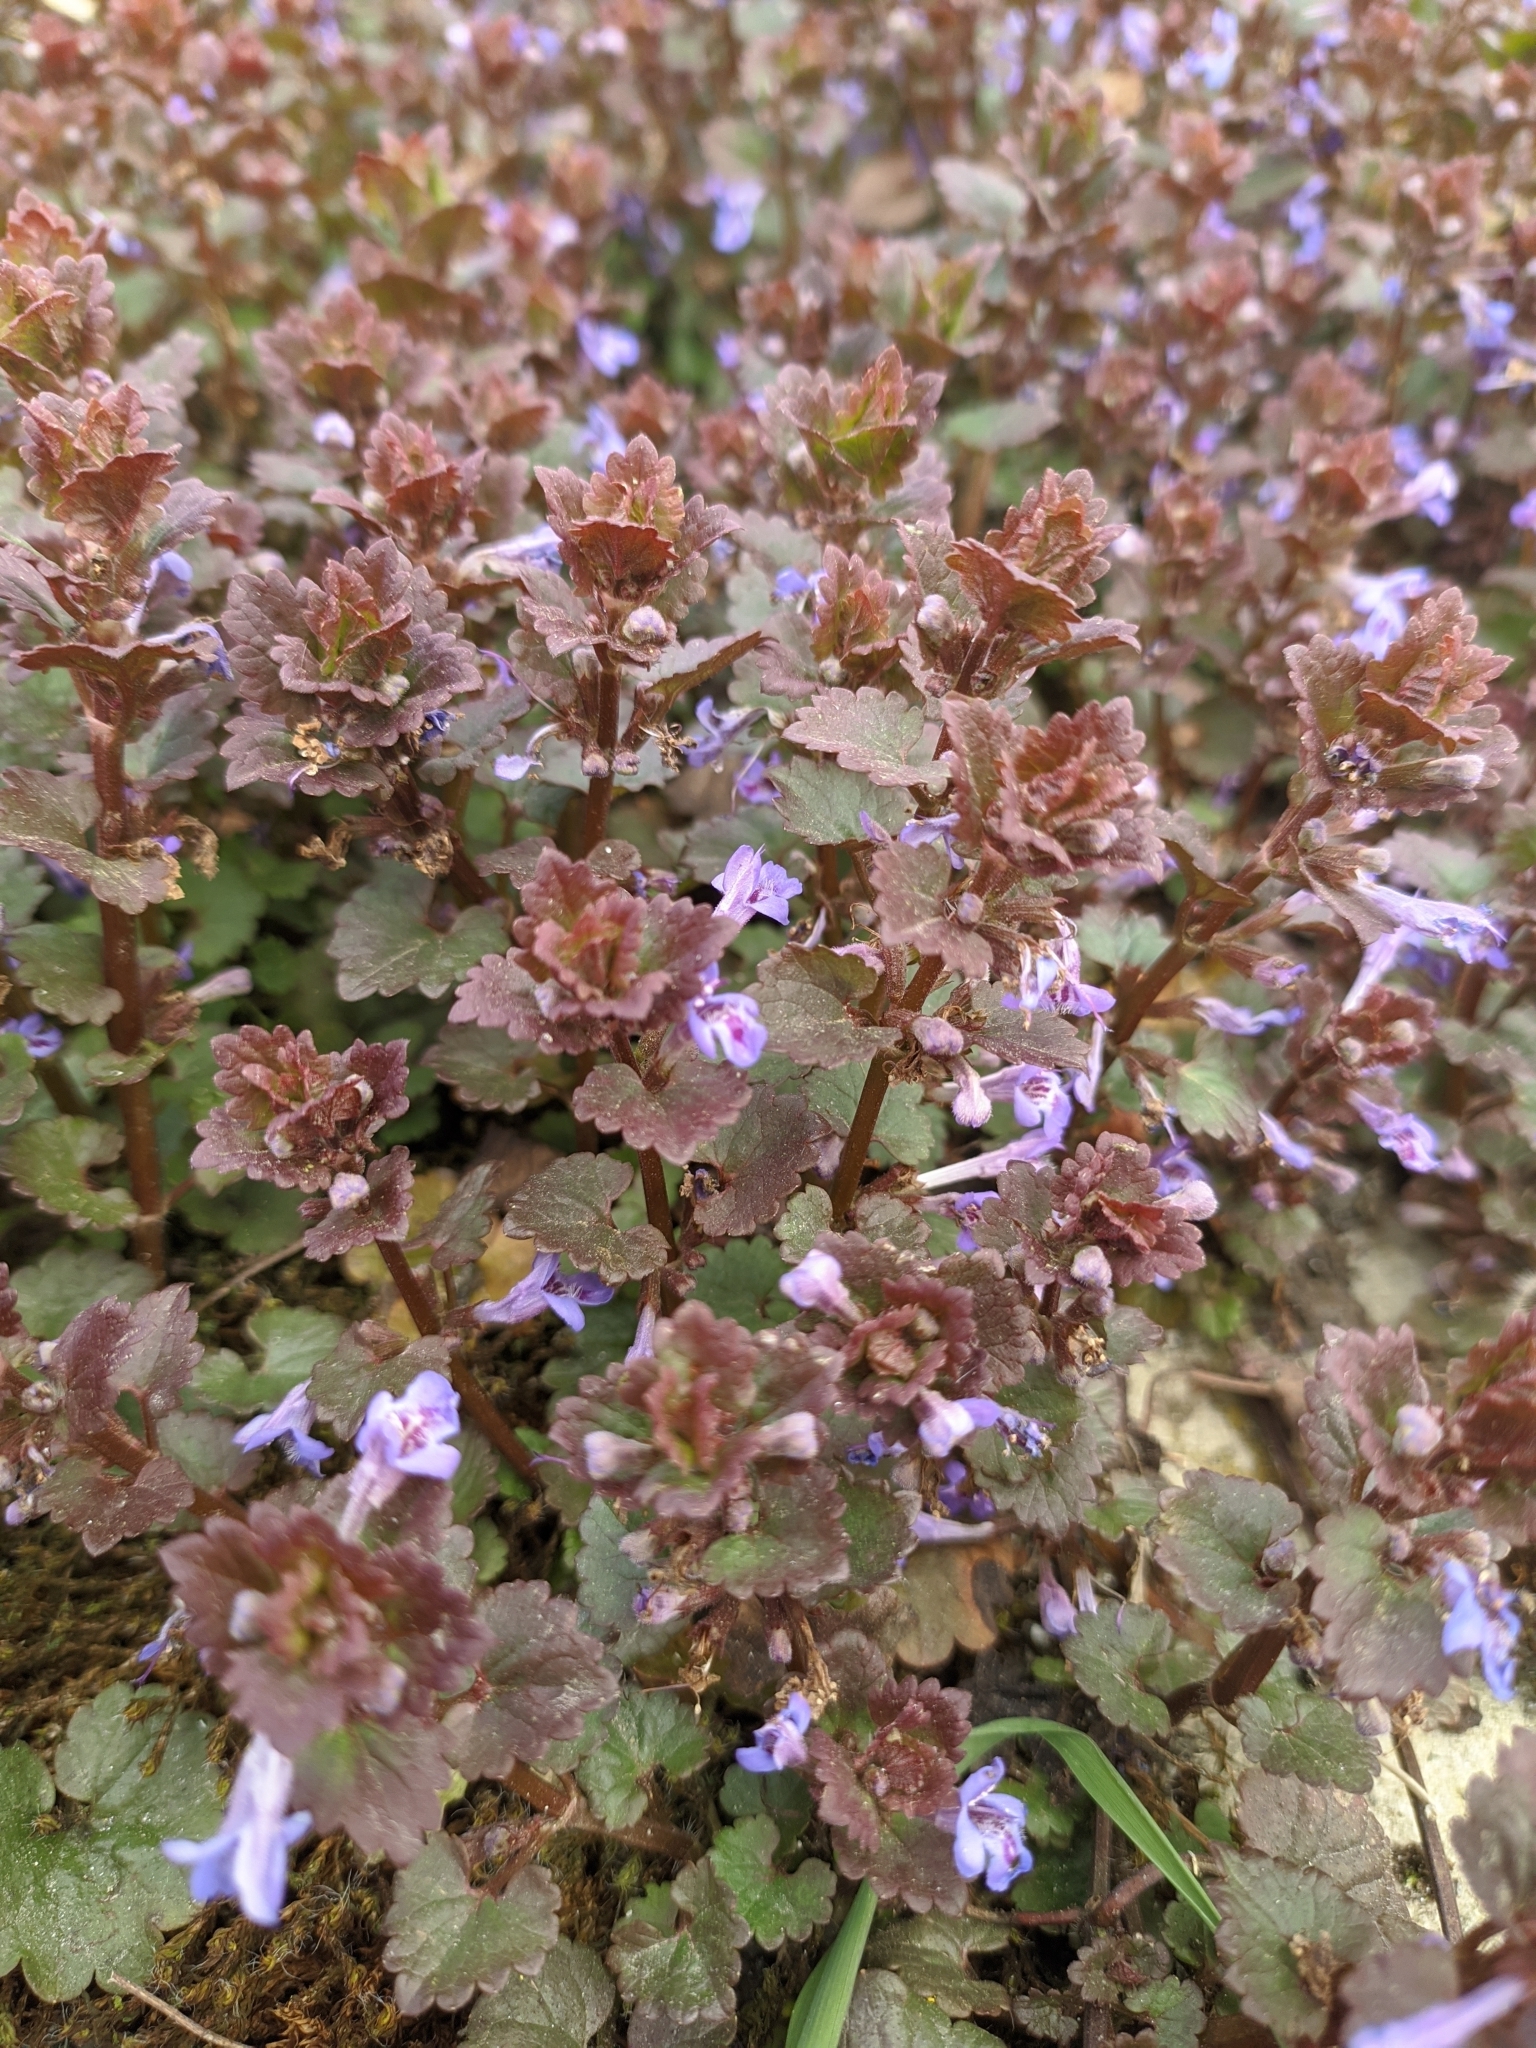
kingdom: Plantae
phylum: Tracheophyta
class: Magnoliopsida
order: Lamiales
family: Lamiaceae
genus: Glechoma
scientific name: Glechoma hederacea
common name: Ground ivy
